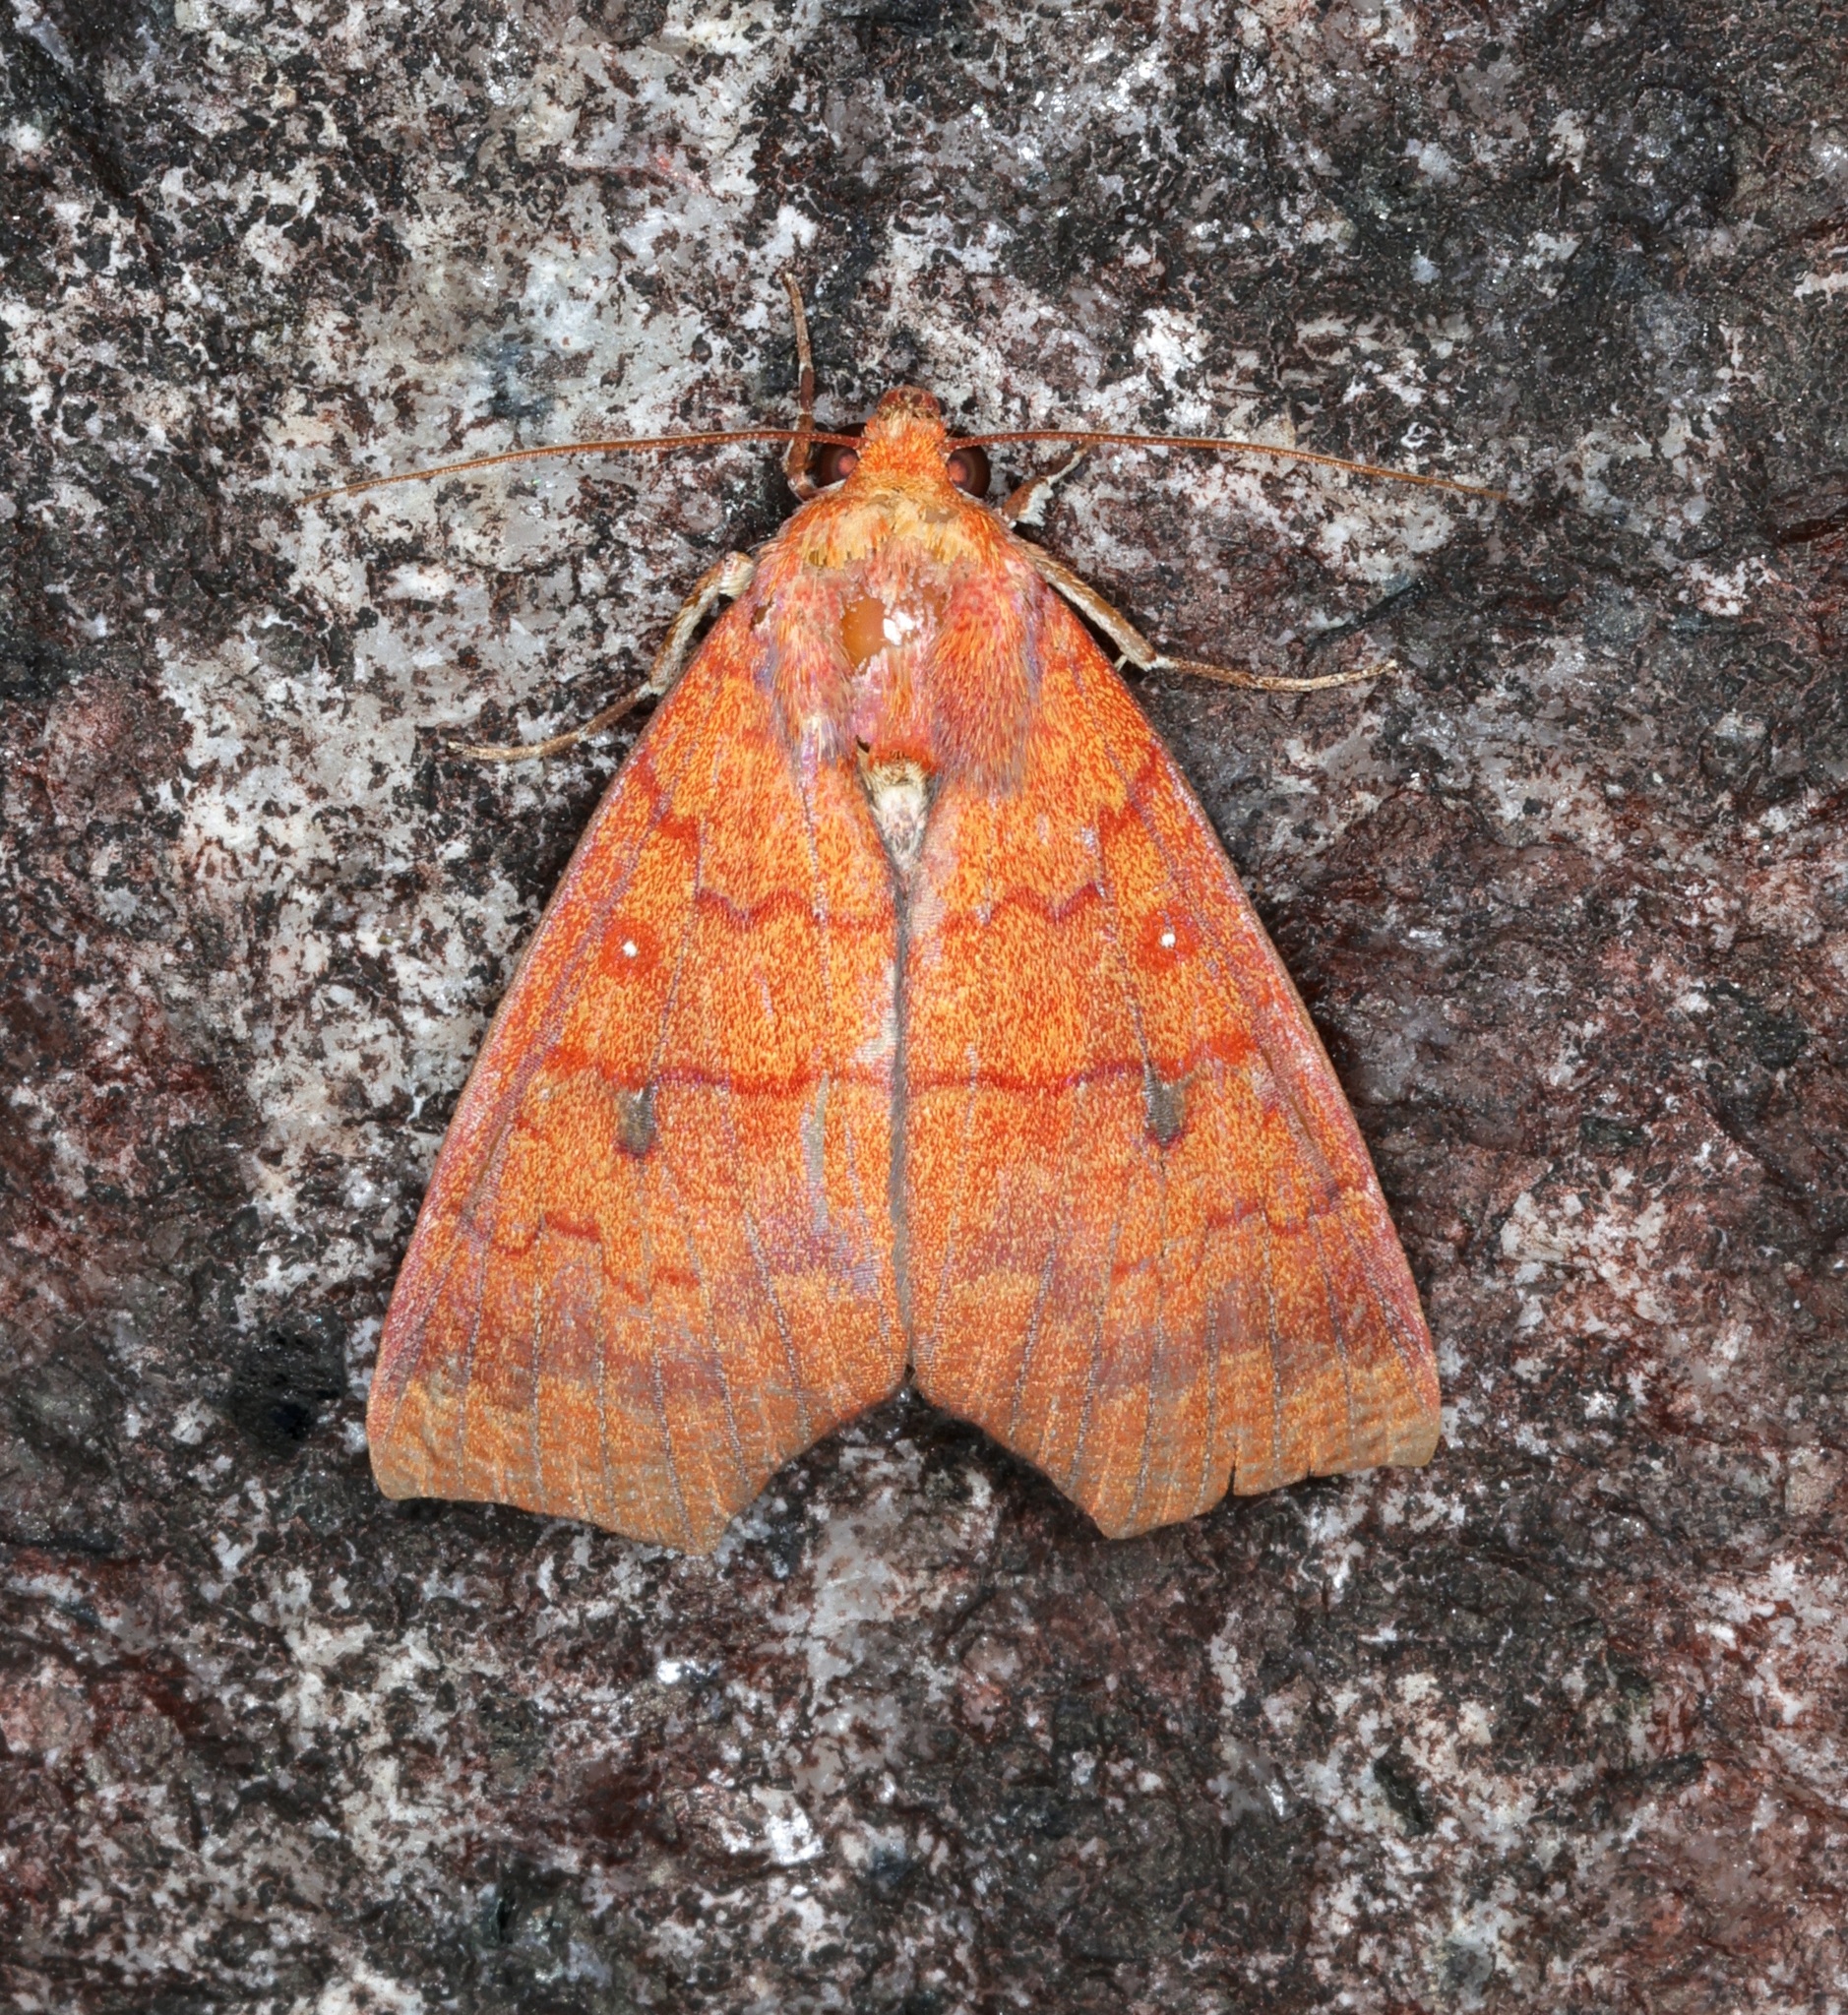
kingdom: Animalia
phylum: Arthropoda
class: Insecta
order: Lepidoptera
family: Erebidae
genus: Rusicada
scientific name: Rusicada leucolopha
